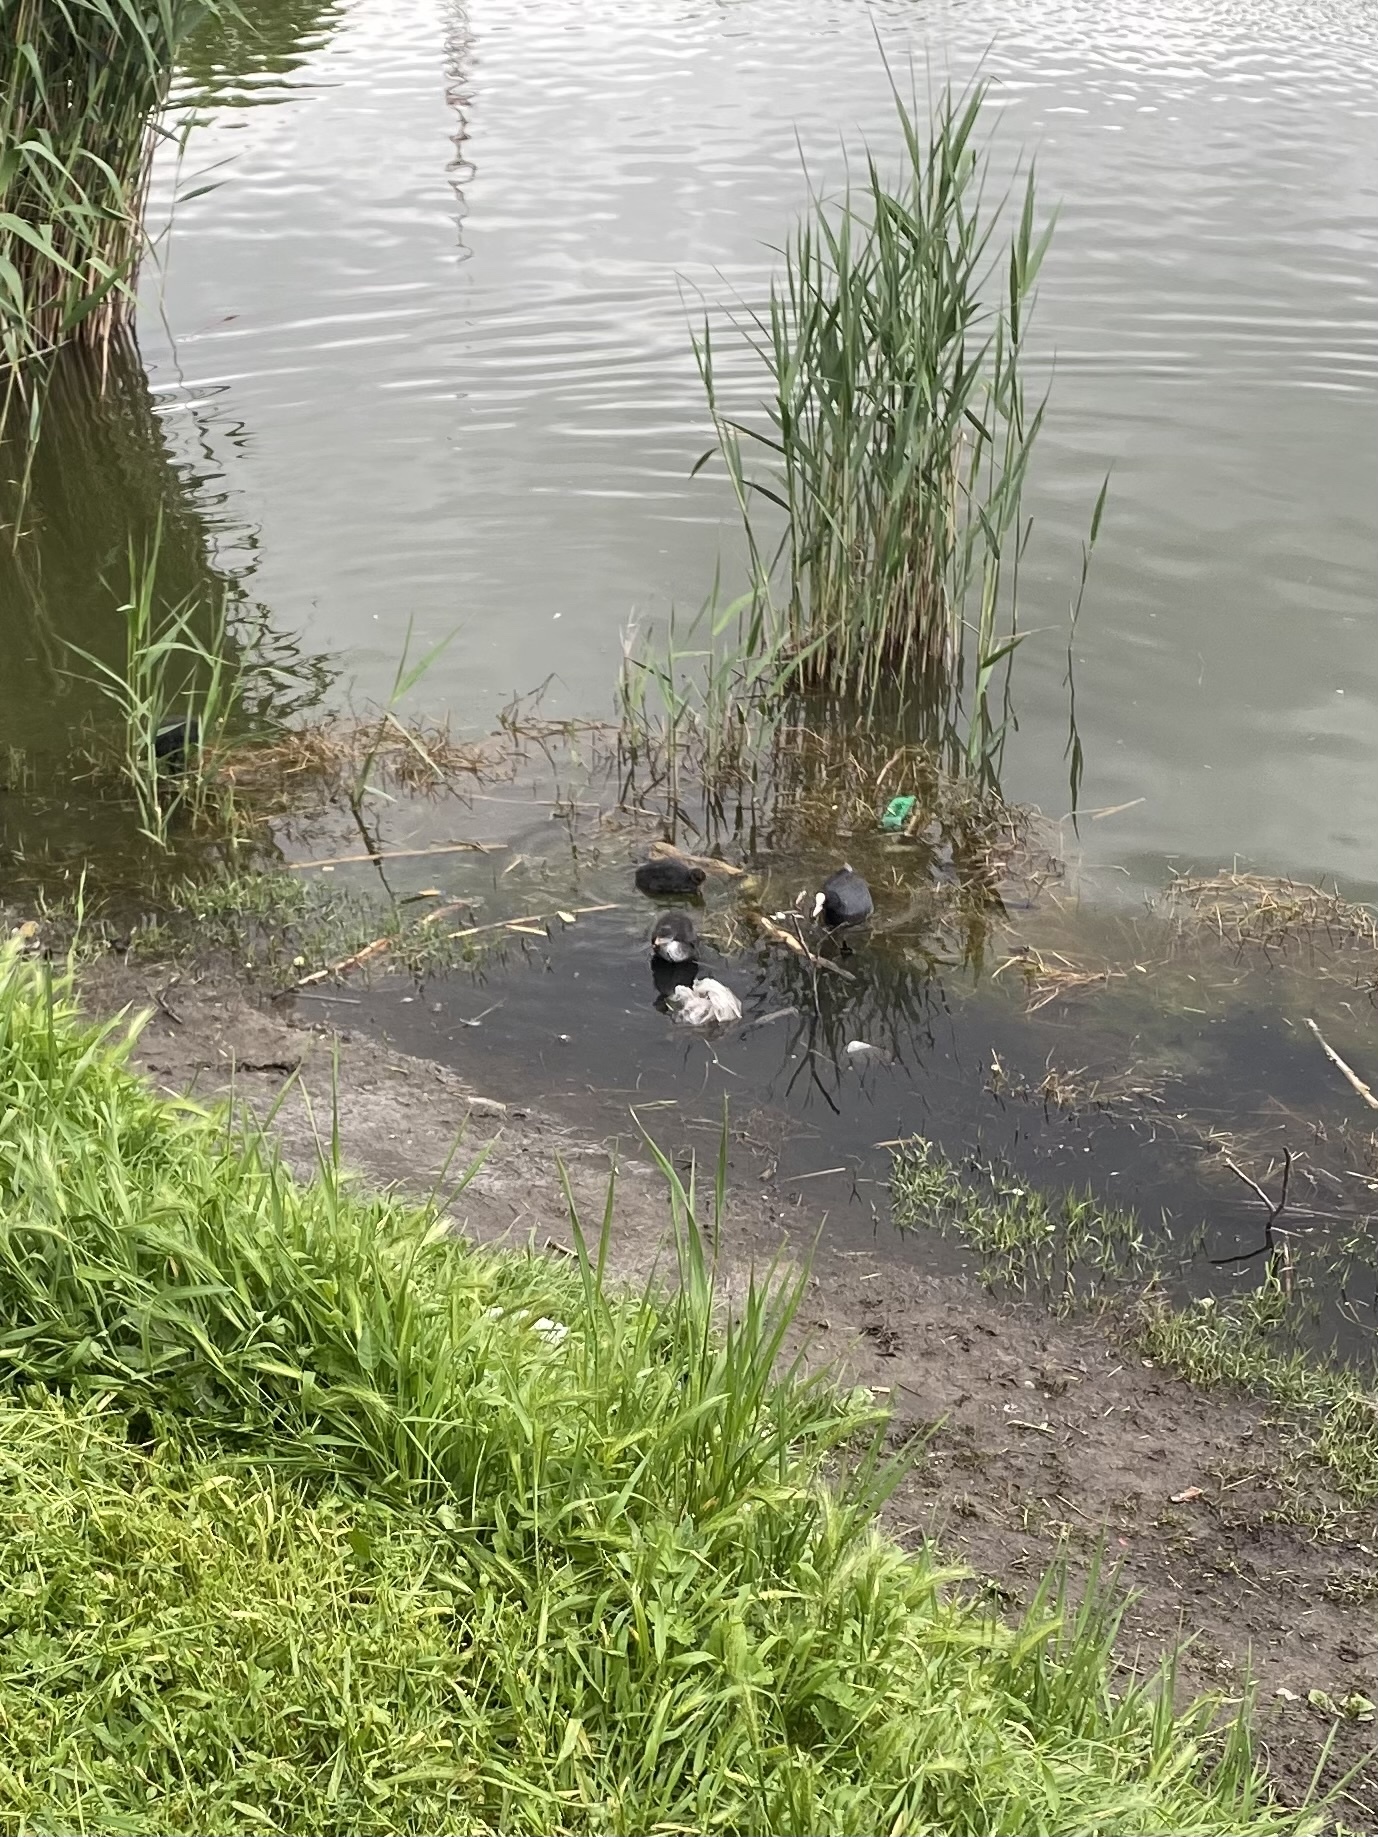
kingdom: Animalia
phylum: Chordata
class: Aves
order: Gruiformes
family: Rallidae
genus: Fulica
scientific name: Fulica atra
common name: Eurasian coot
